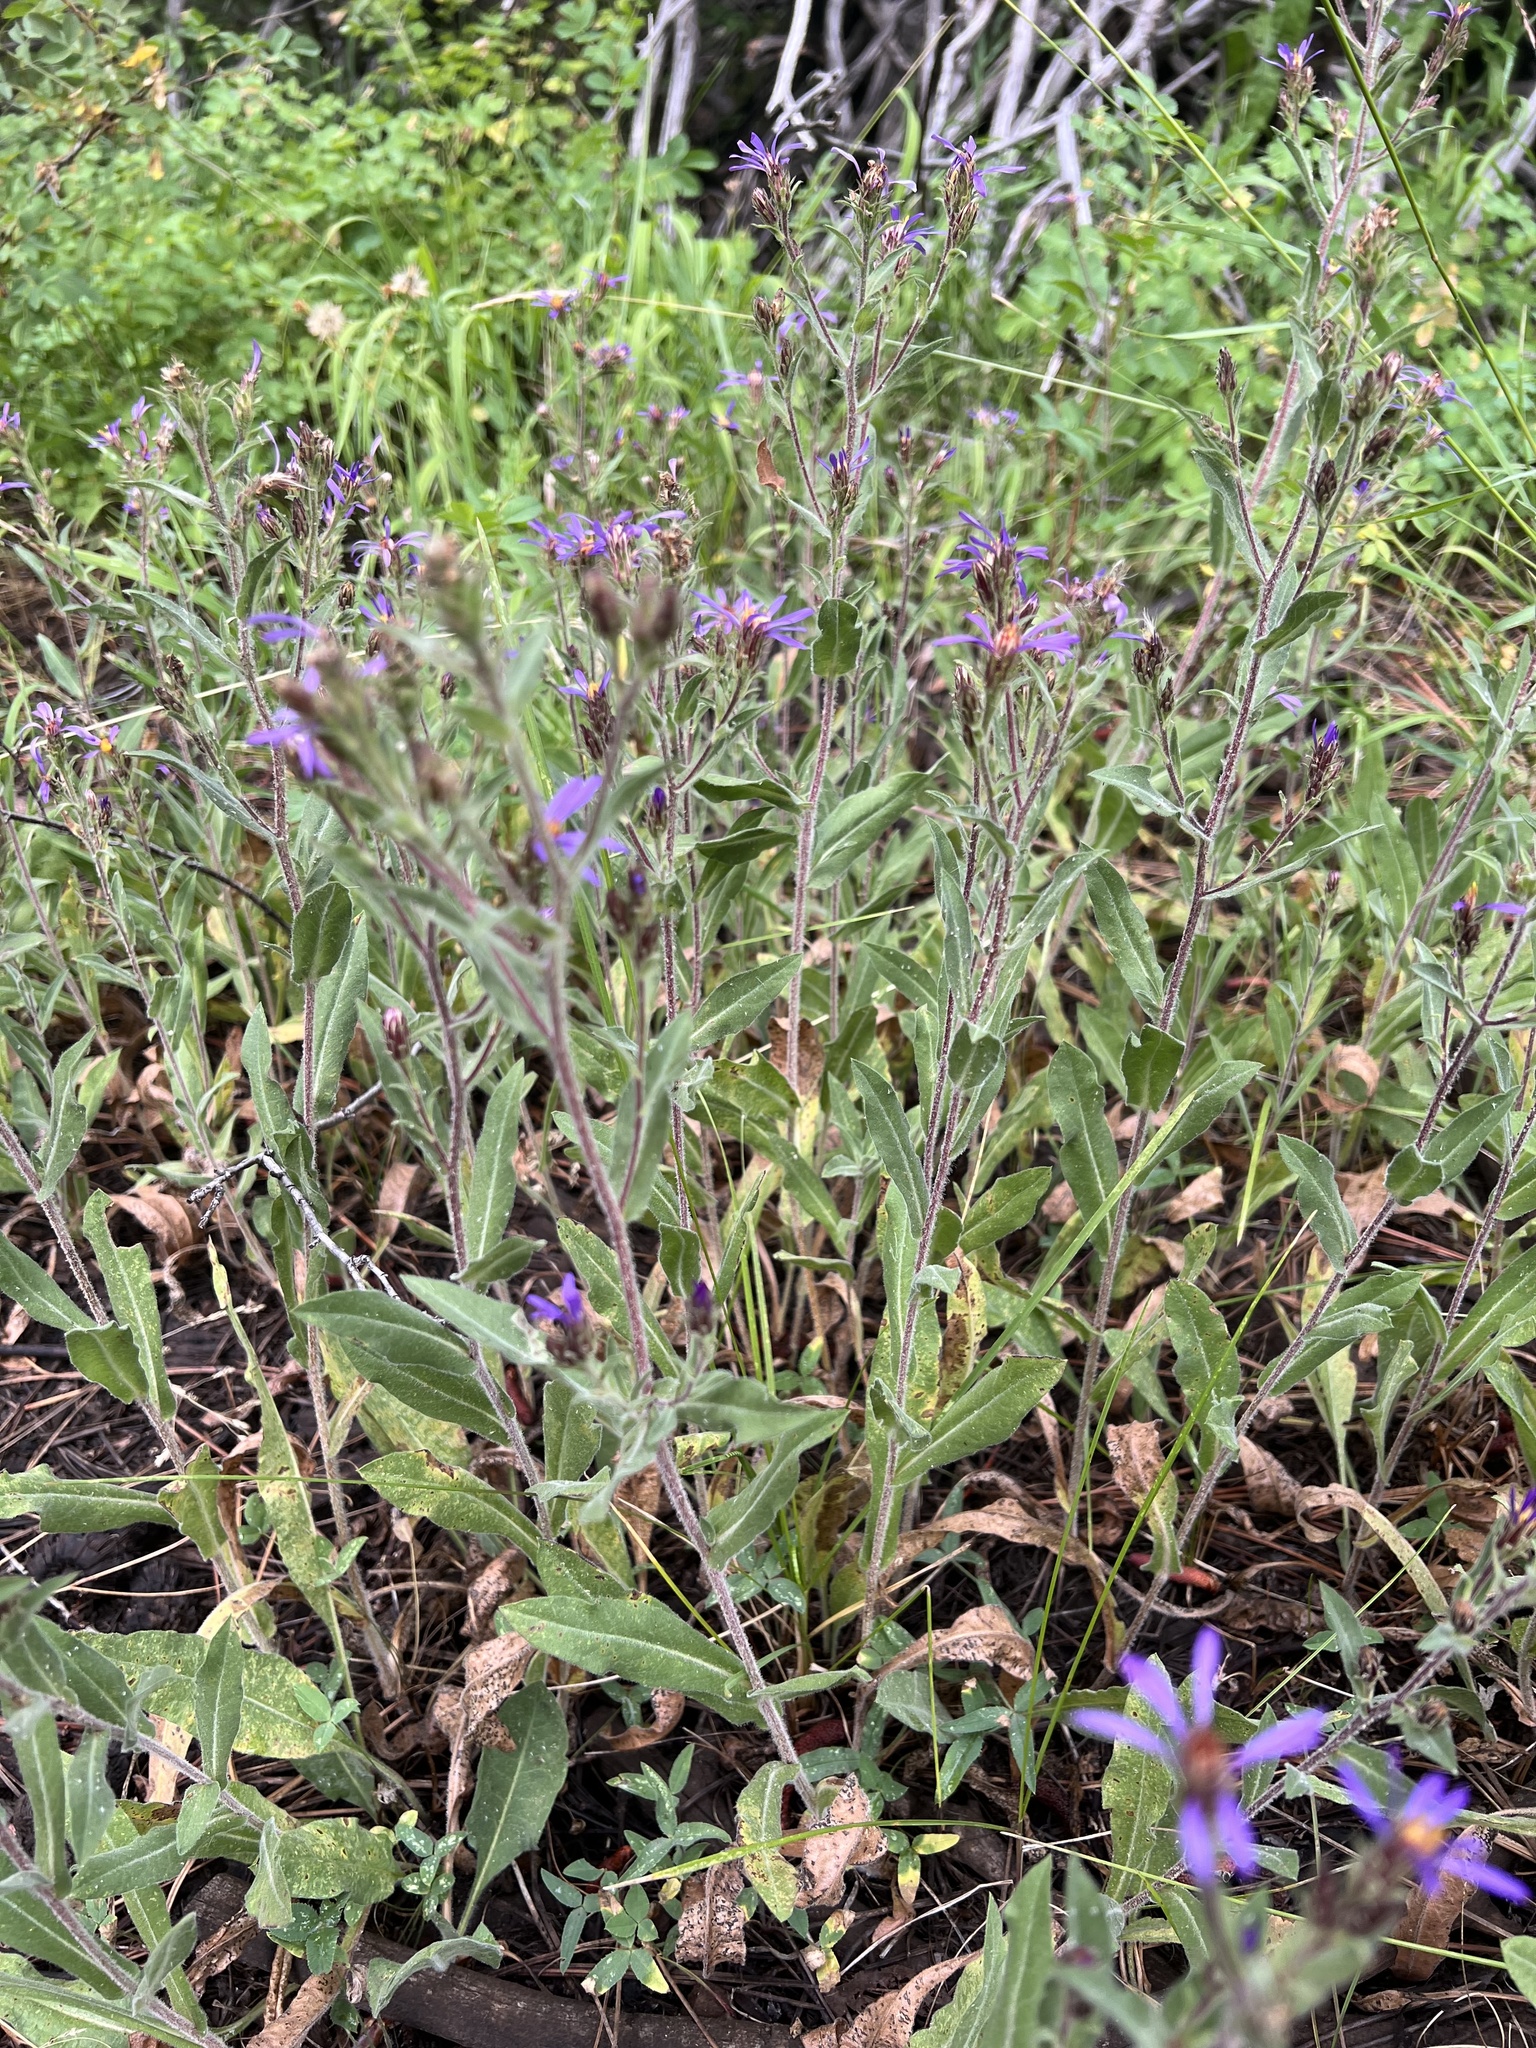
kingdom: Plantae
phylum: Tracheophyta
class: Magnoliopsida
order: Asterales
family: Asteraceae
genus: Eurybia
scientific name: Eurybia integrifolia
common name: Thick-stem aster
